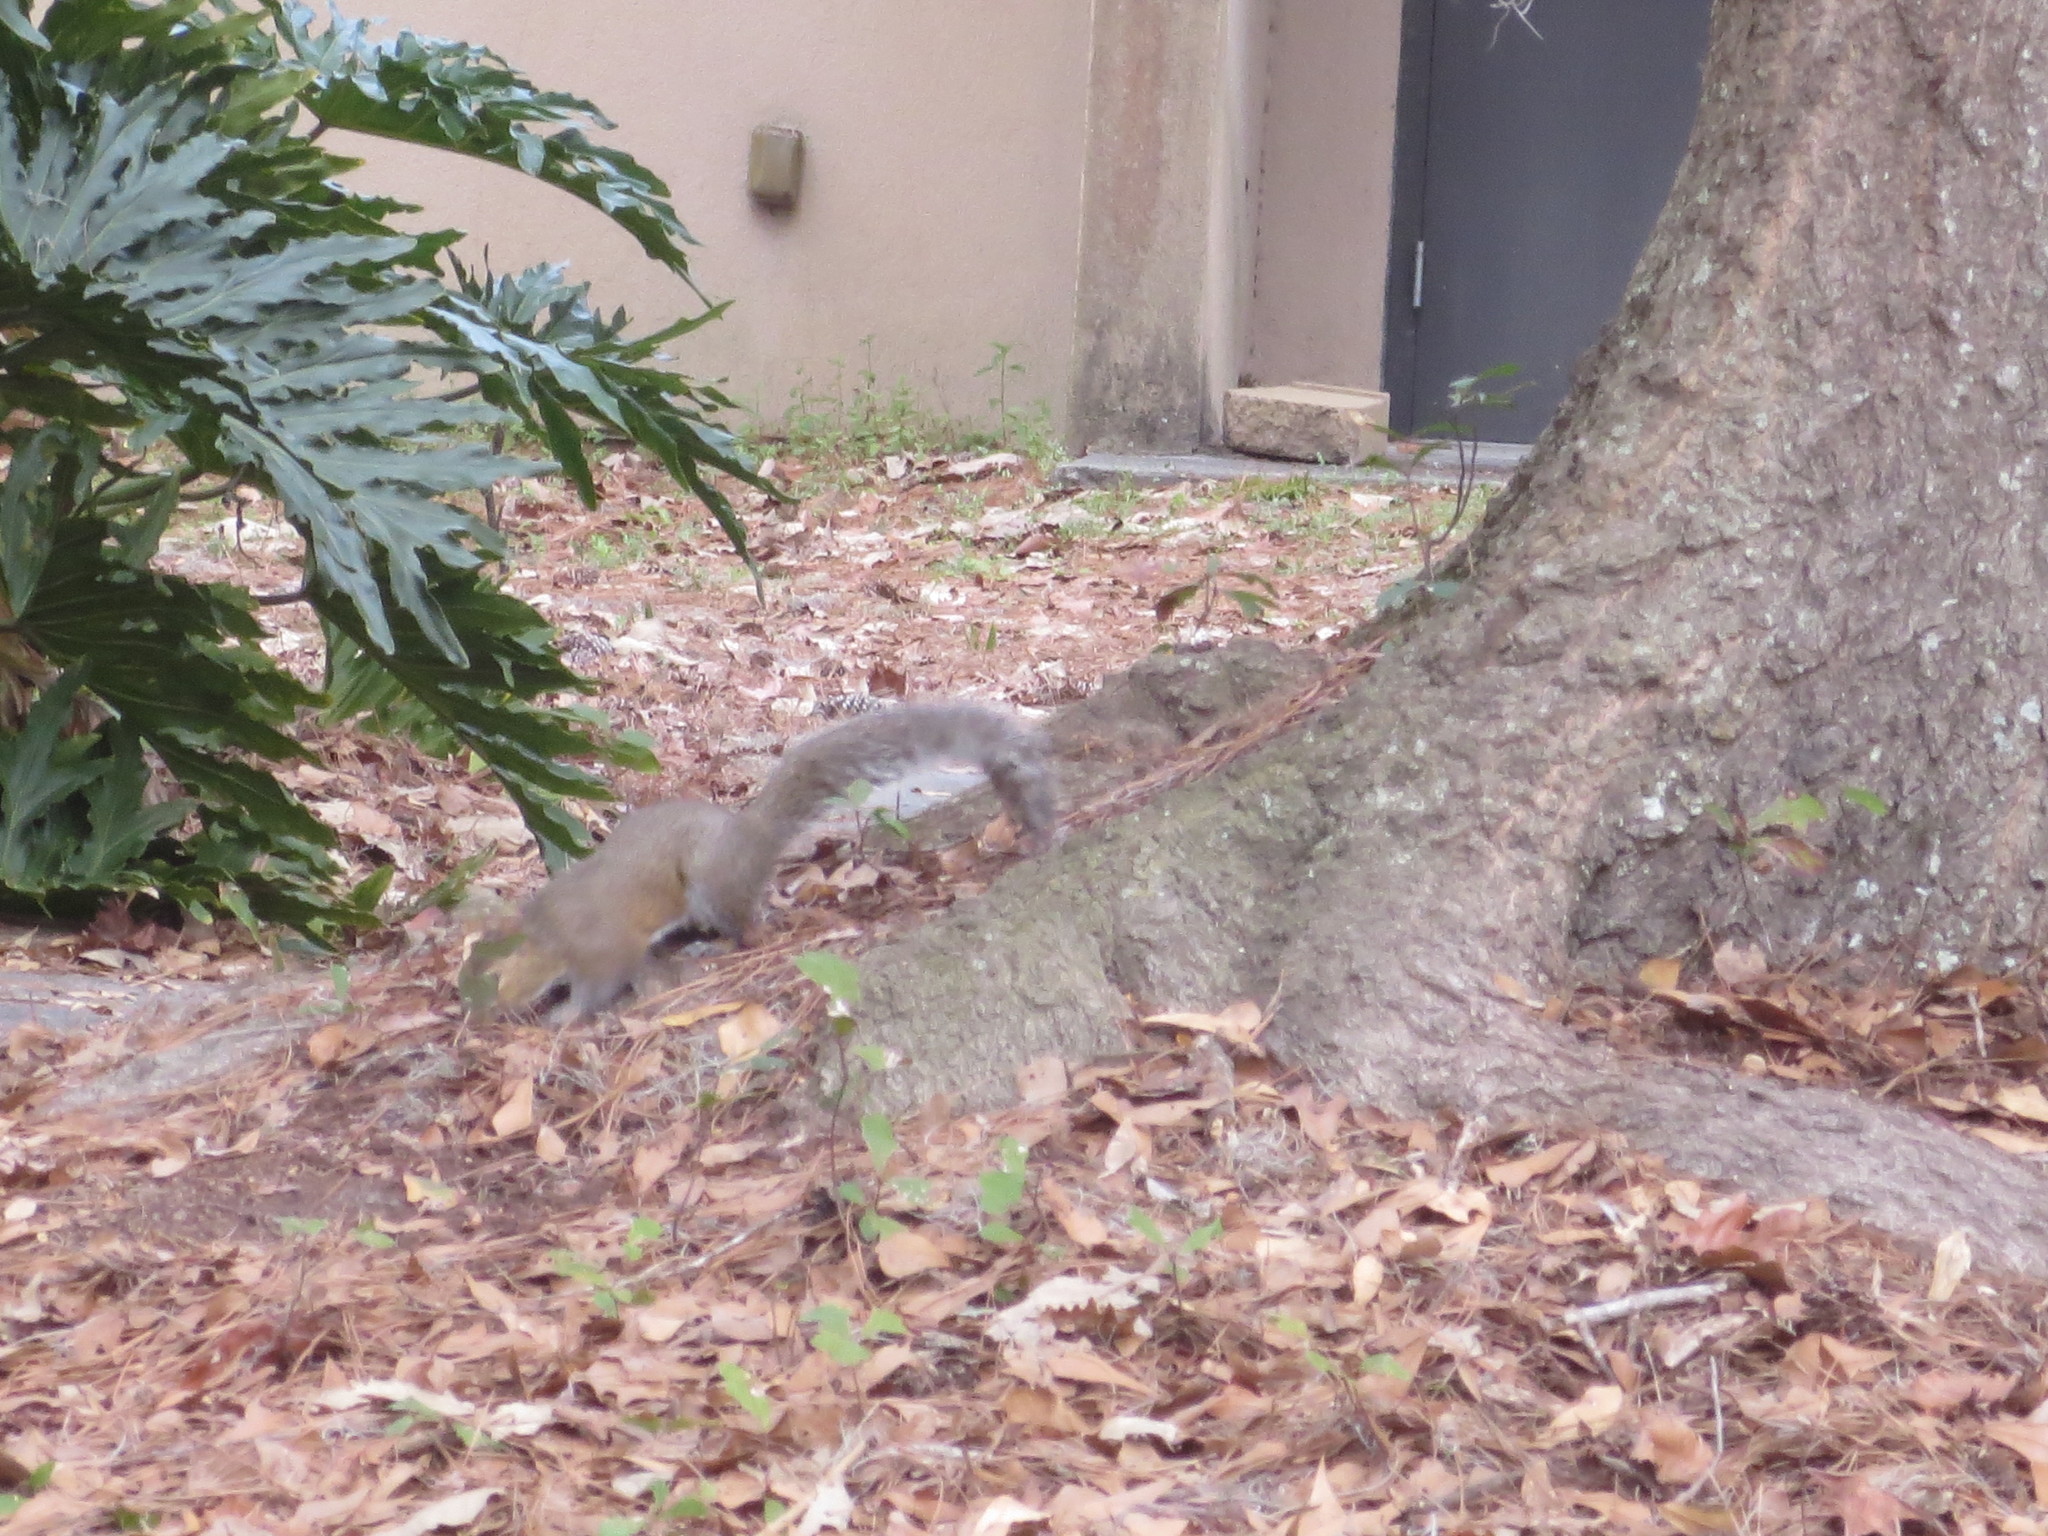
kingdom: Animalia
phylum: Chordata
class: Mammalia
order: Rodentia
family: Sciuridae
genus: Sciurus
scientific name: Sciurus carolinensis
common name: Eastern gray squirrel
